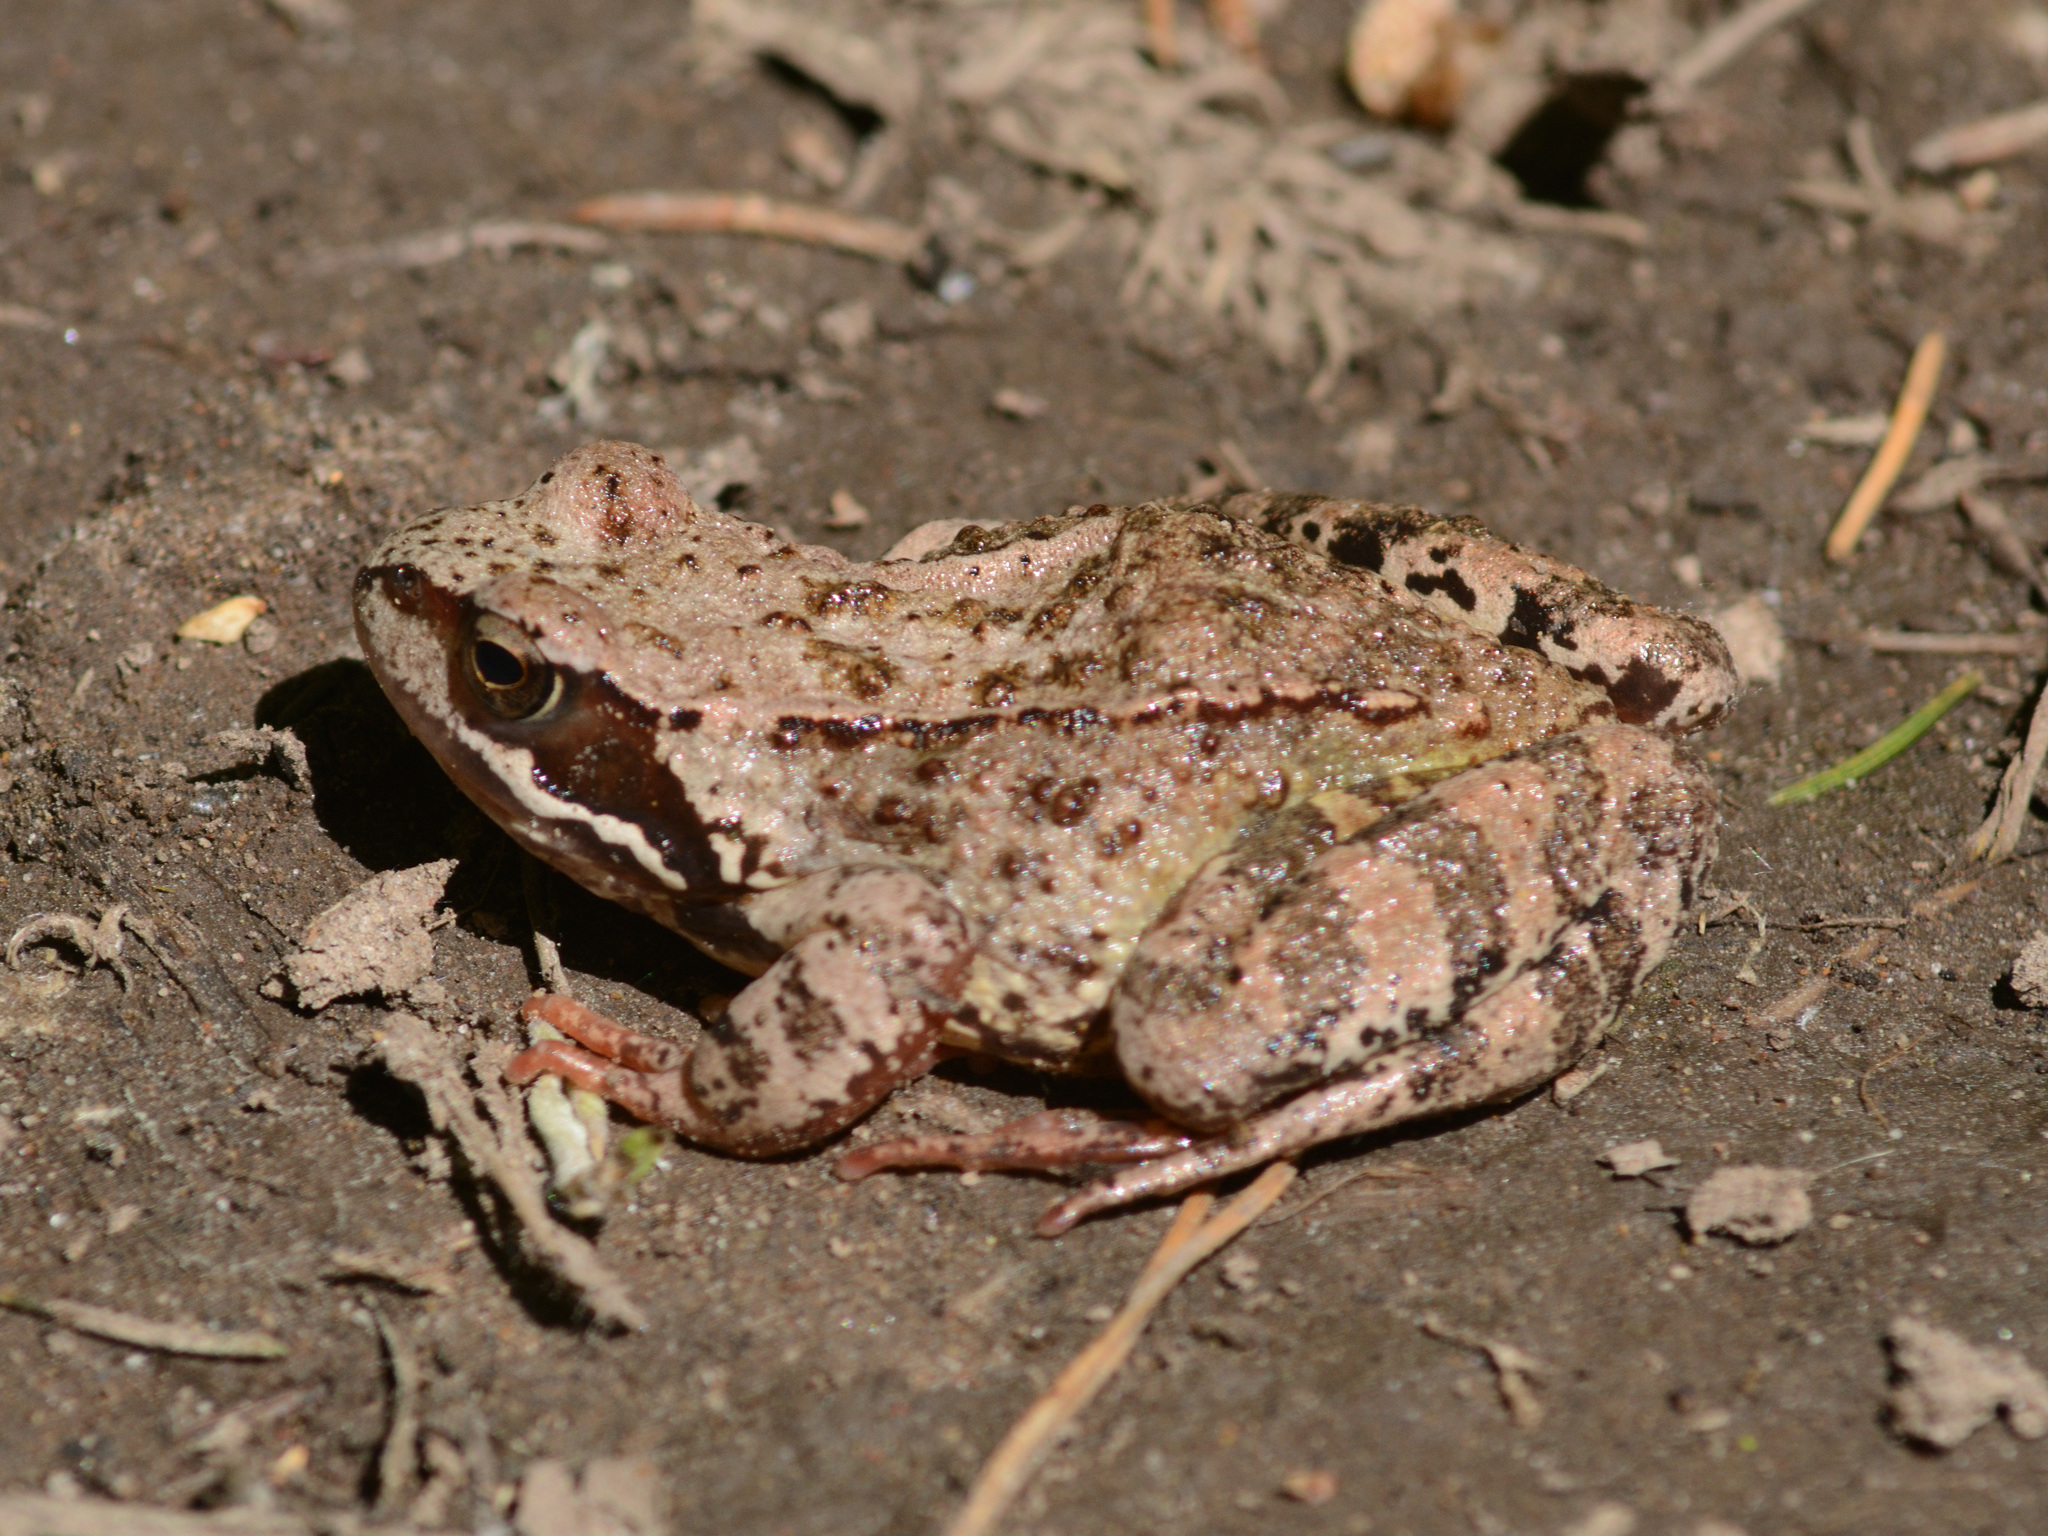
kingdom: Animalia
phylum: Chordata
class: Amphibia
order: Anura
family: Ranidae
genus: Rana
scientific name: Rana temporaria
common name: Common frog
